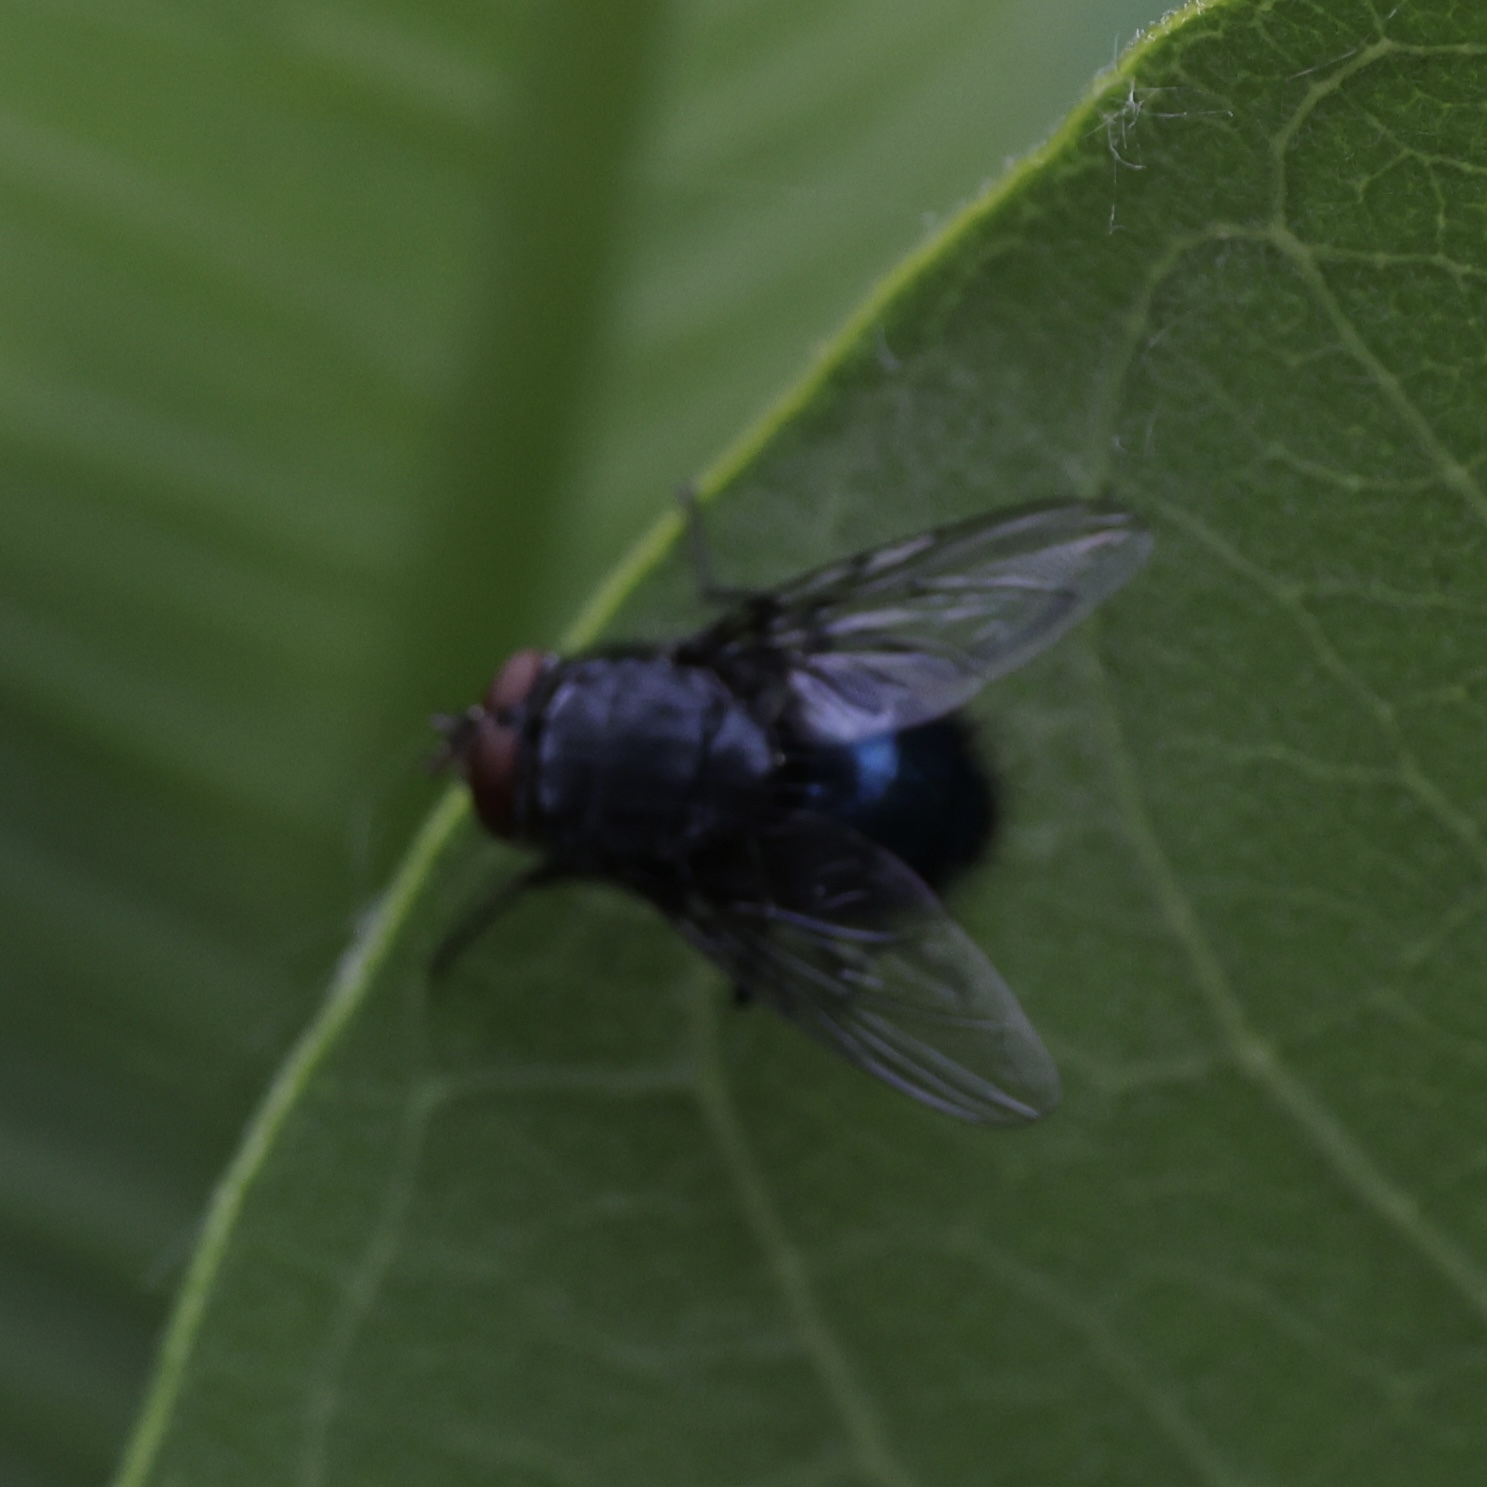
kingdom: Animalia
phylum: Arthropoda
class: Insecta
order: Diptera
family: Calliphoridae
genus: Calliphora
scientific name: Calliphora vicina
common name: Common blow flie
